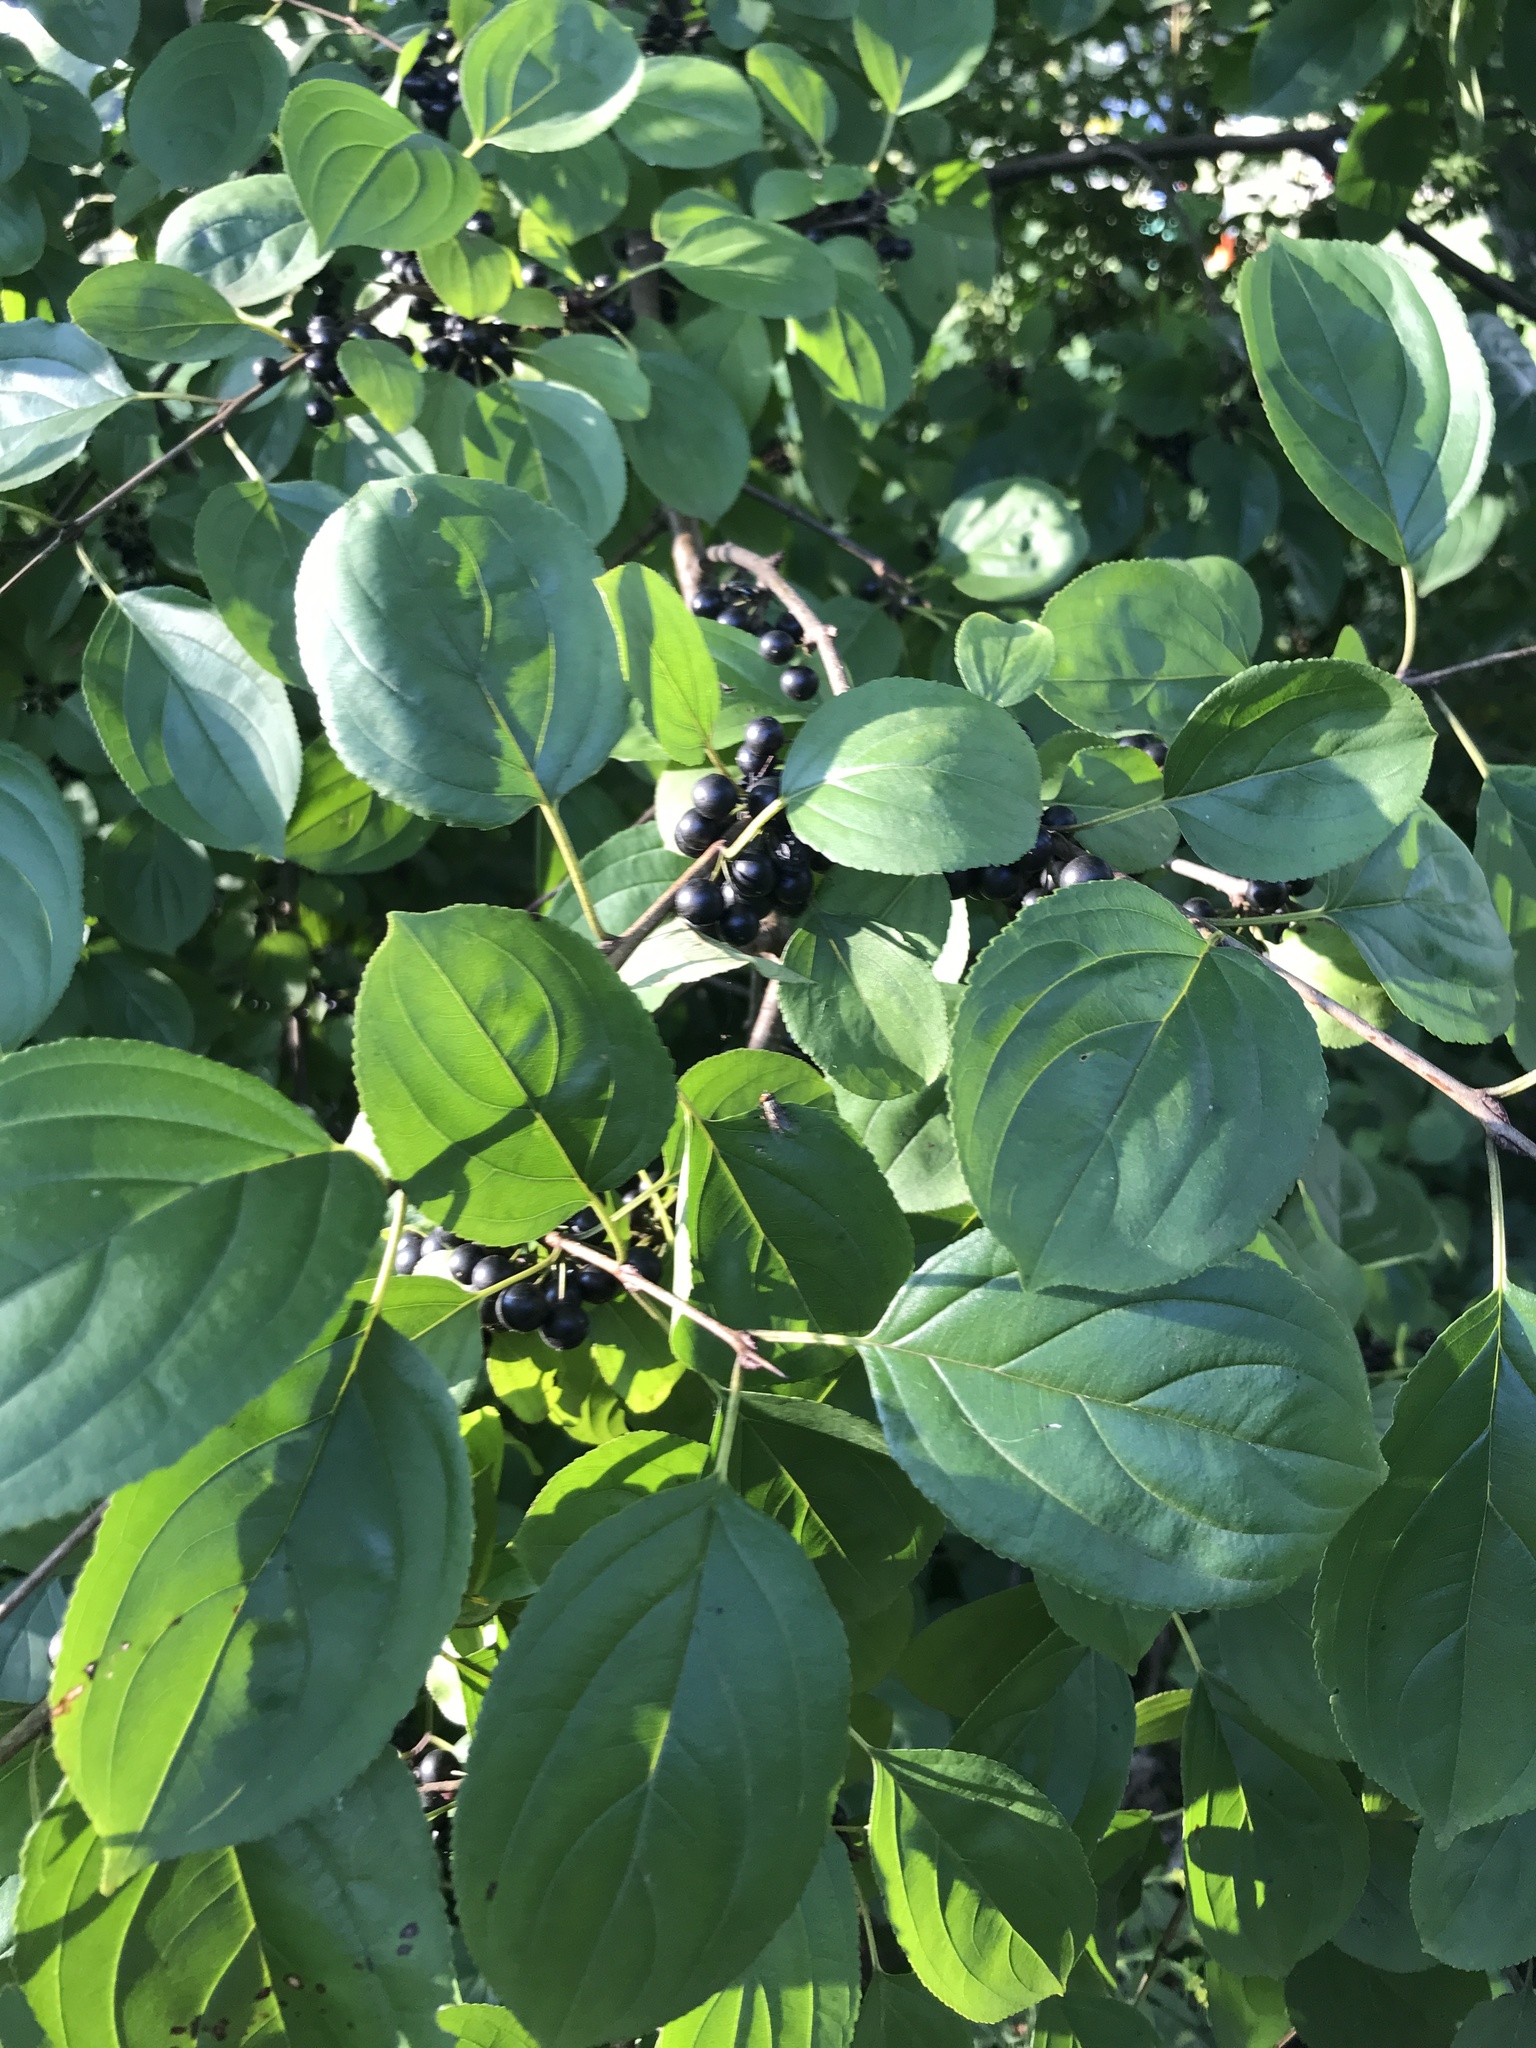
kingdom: Plantae
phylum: Tracheophyta
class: Magnoliopsida
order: Rosales
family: Rhamnaceae
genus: Rhamnus
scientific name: Rhamnus cathartica
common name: Common buckthorn
